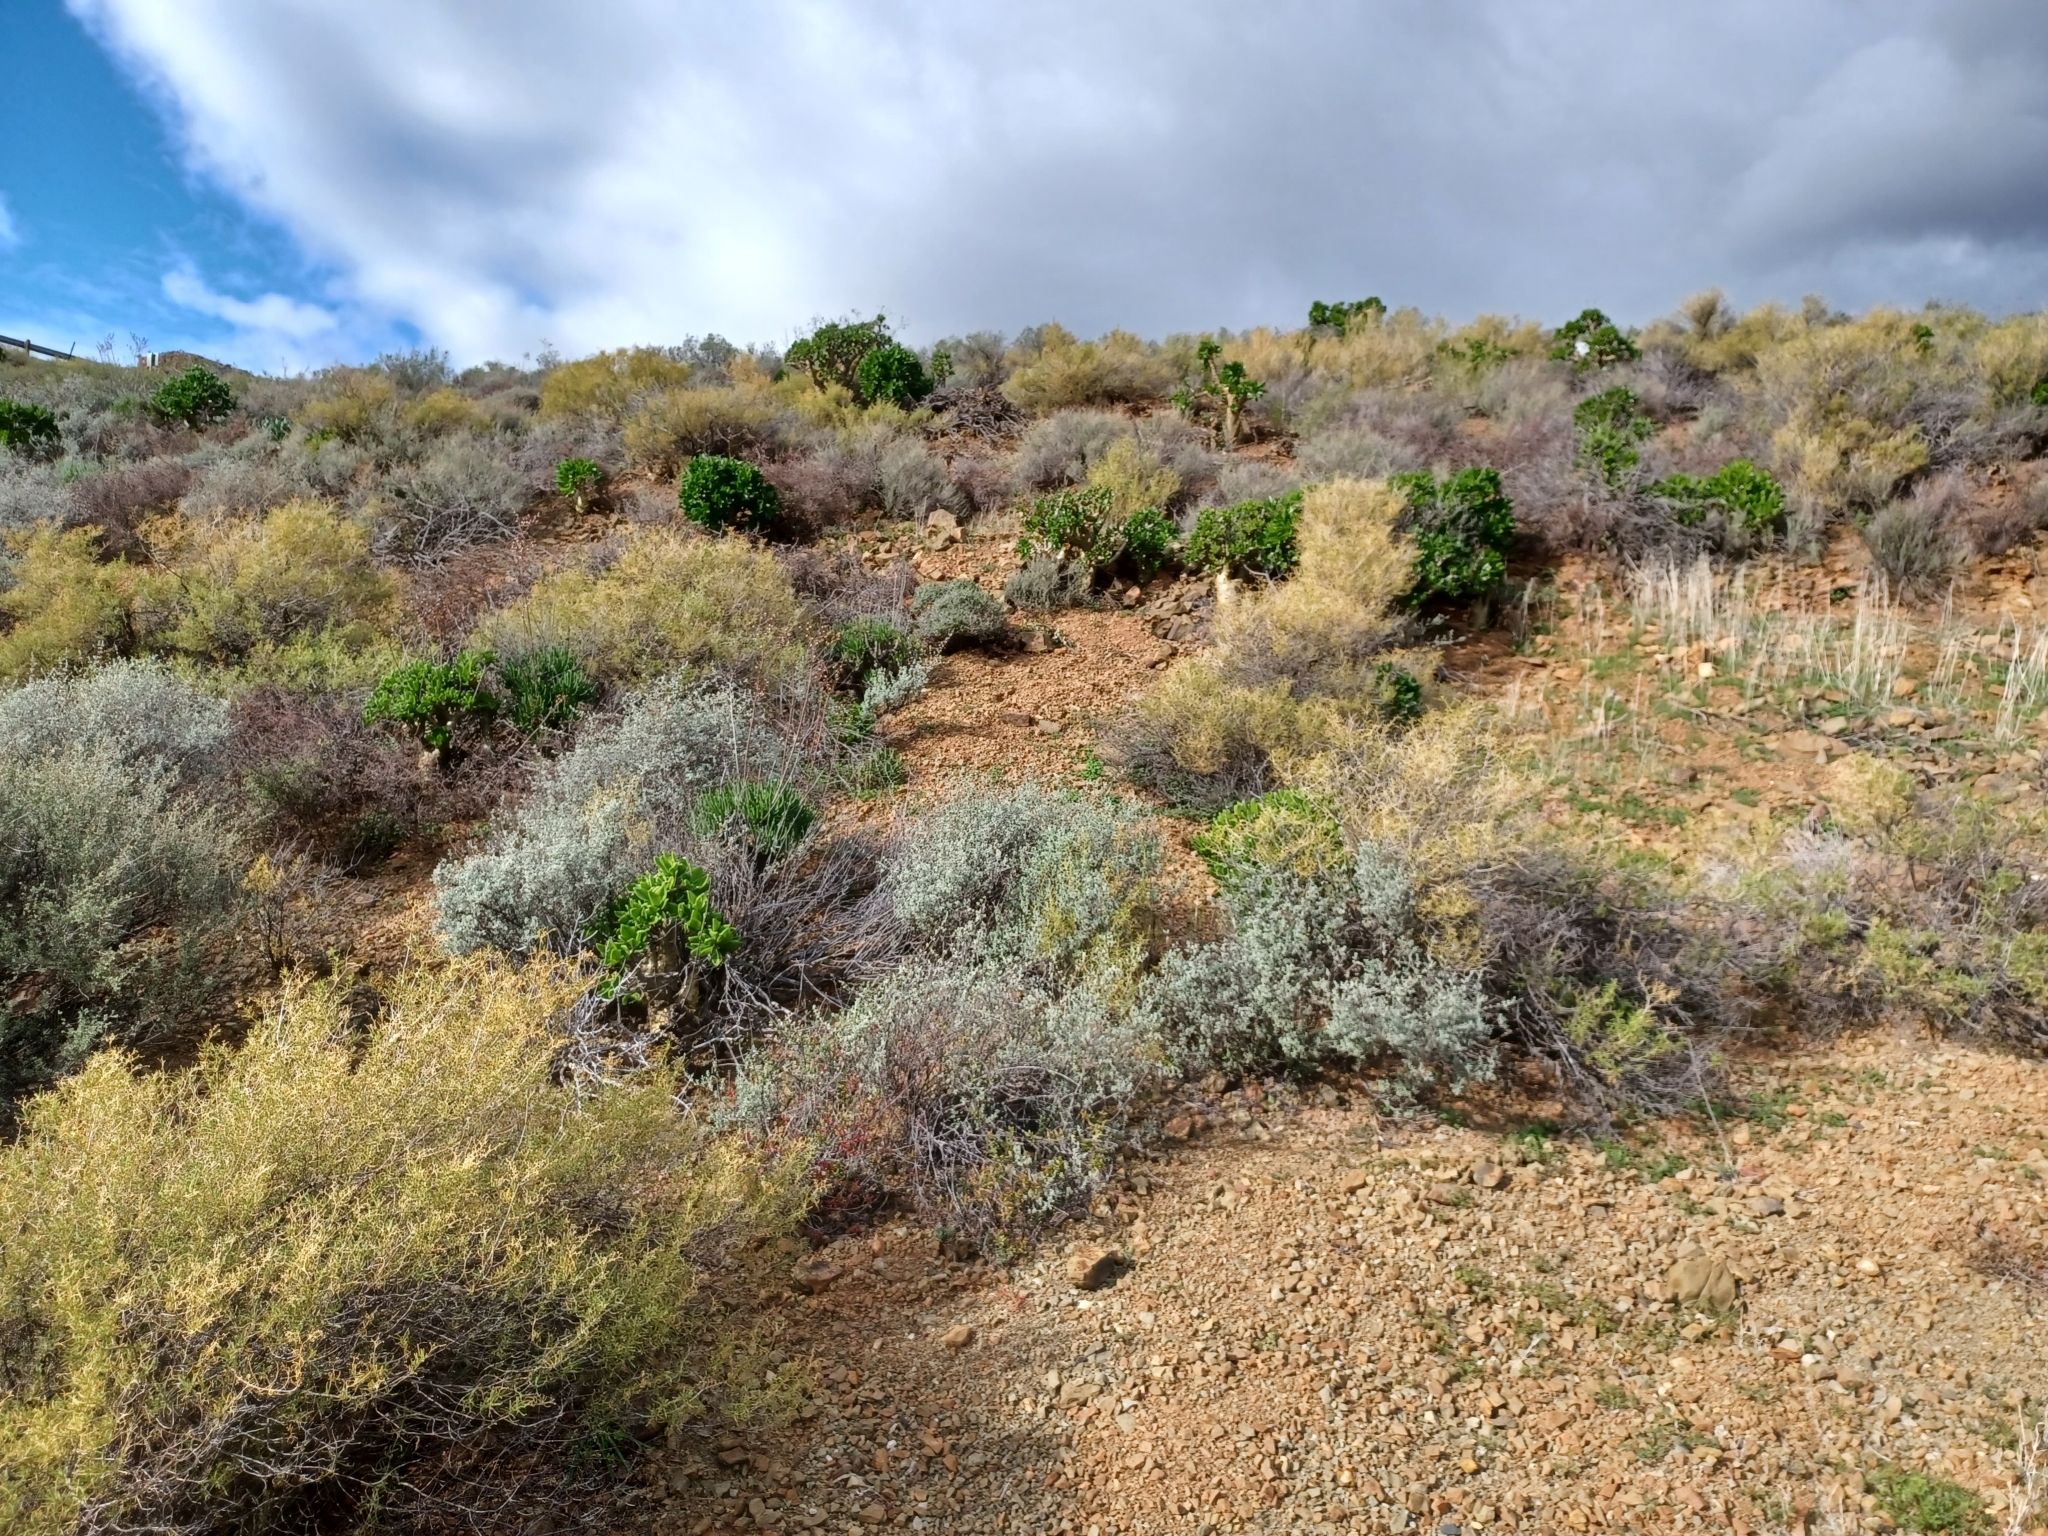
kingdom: Plantae
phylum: Tracheophyta
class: Magnoliopsida
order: Saxifragales
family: Crassulaceae
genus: Tylecodon
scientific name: Tylecodon paniculatus
